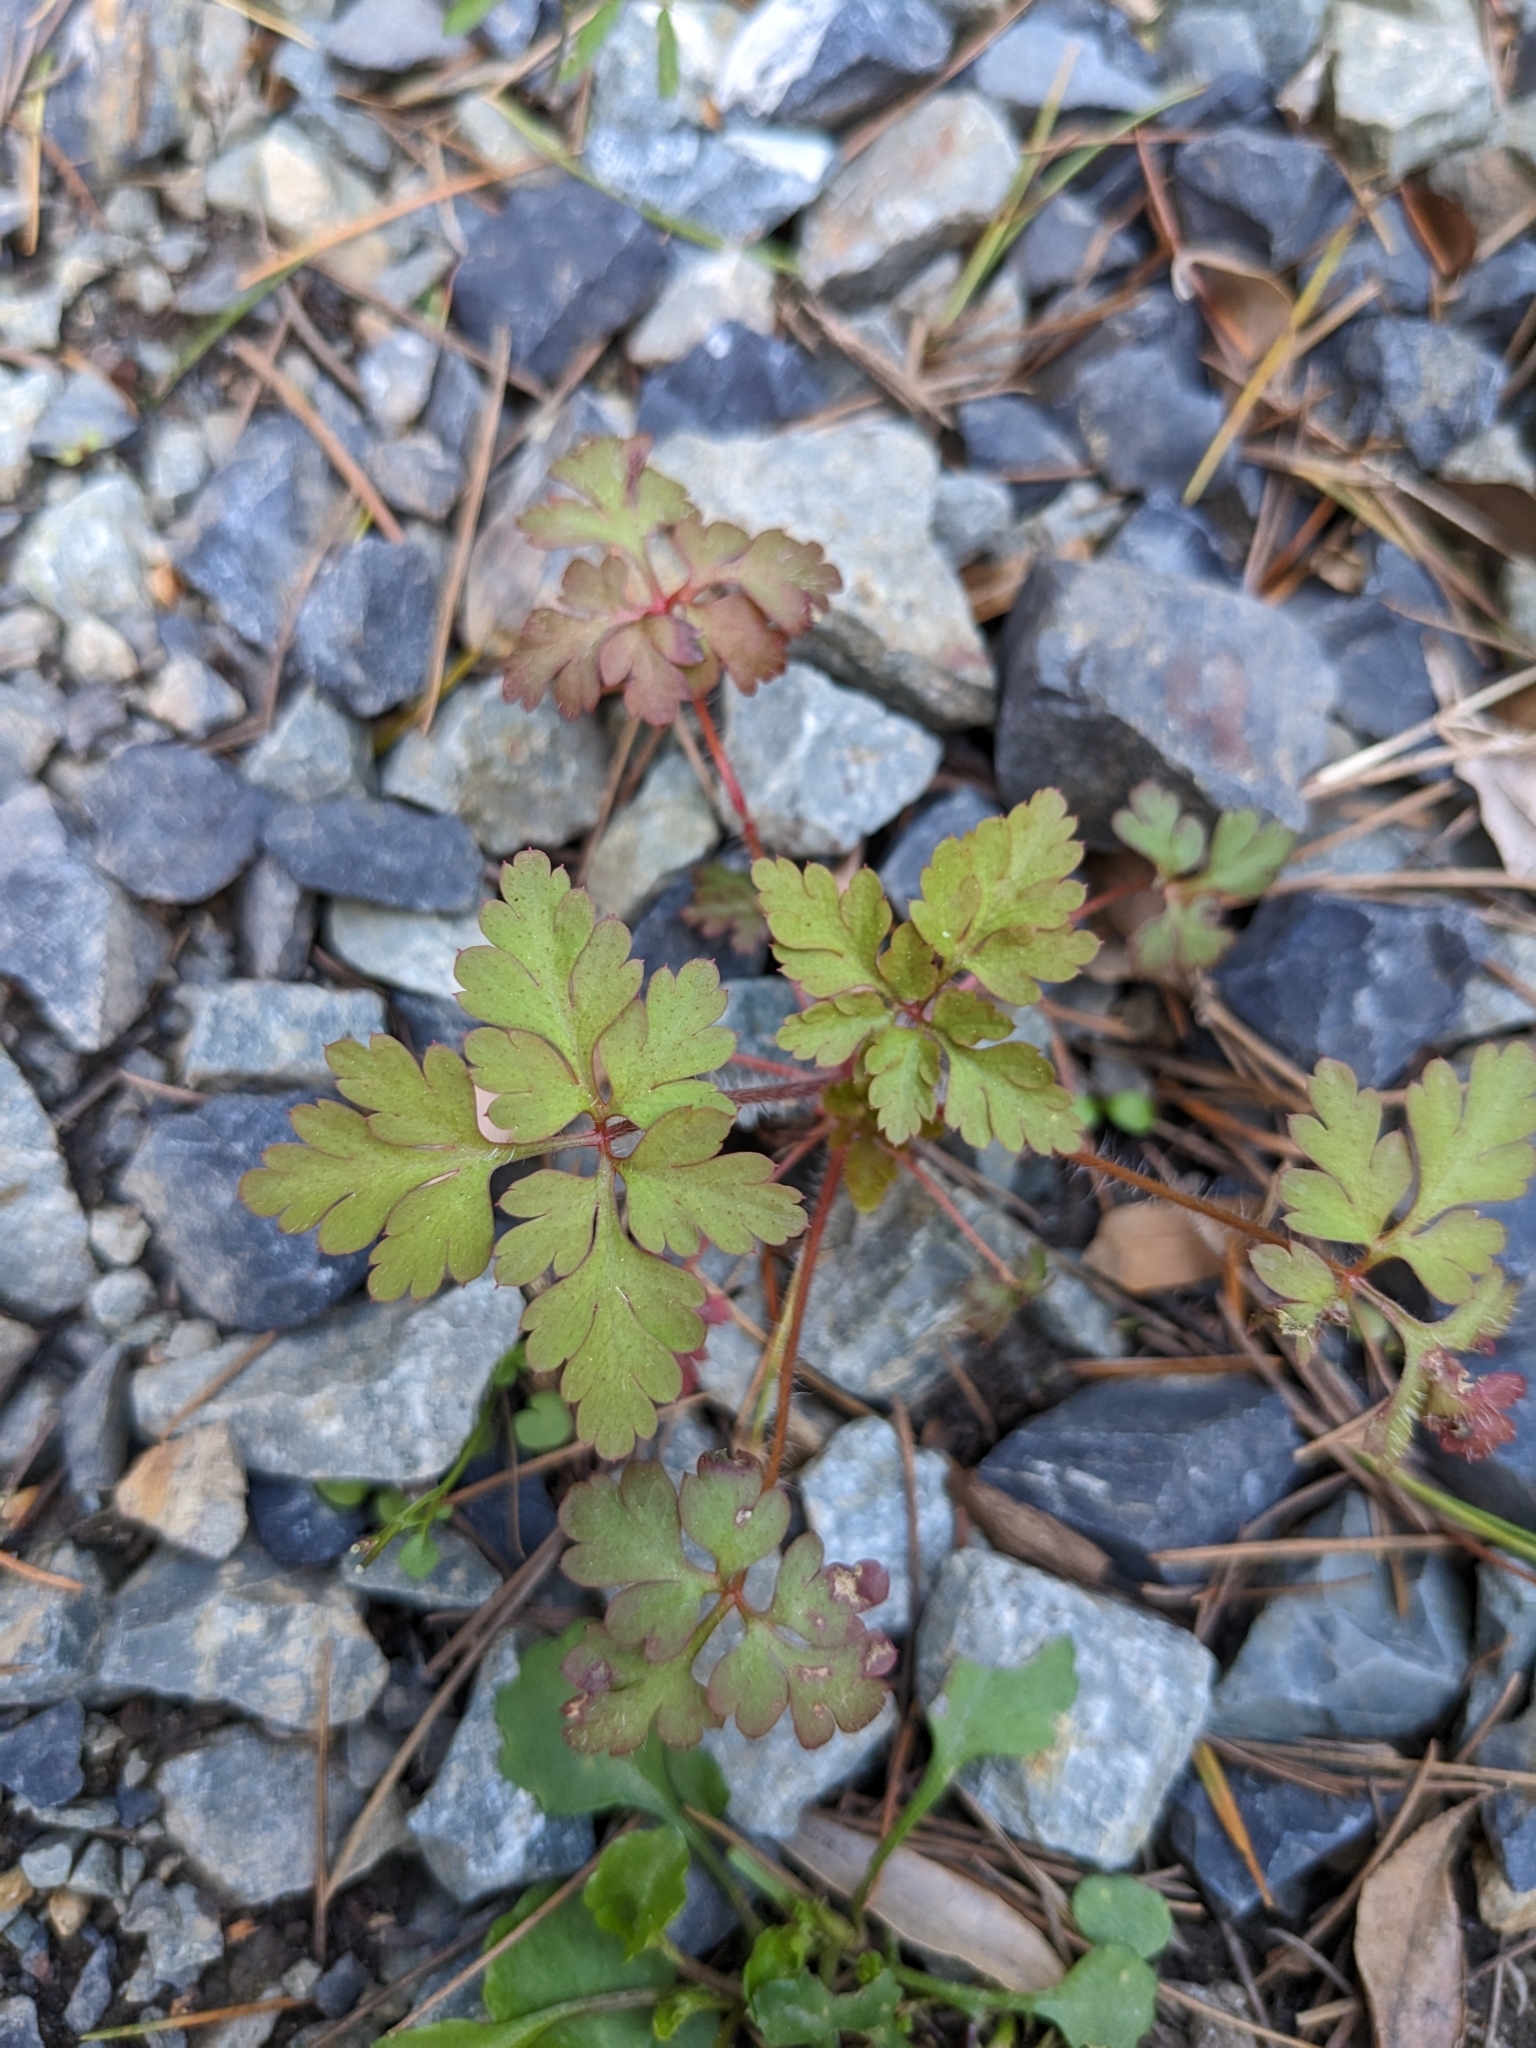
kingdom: Plantae
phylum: Tracheophyta
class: Magnoliopsida
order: Geraniales
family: Geraniaceae
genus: Geranium
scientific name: Geranium robertianum
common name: Herb-robert
